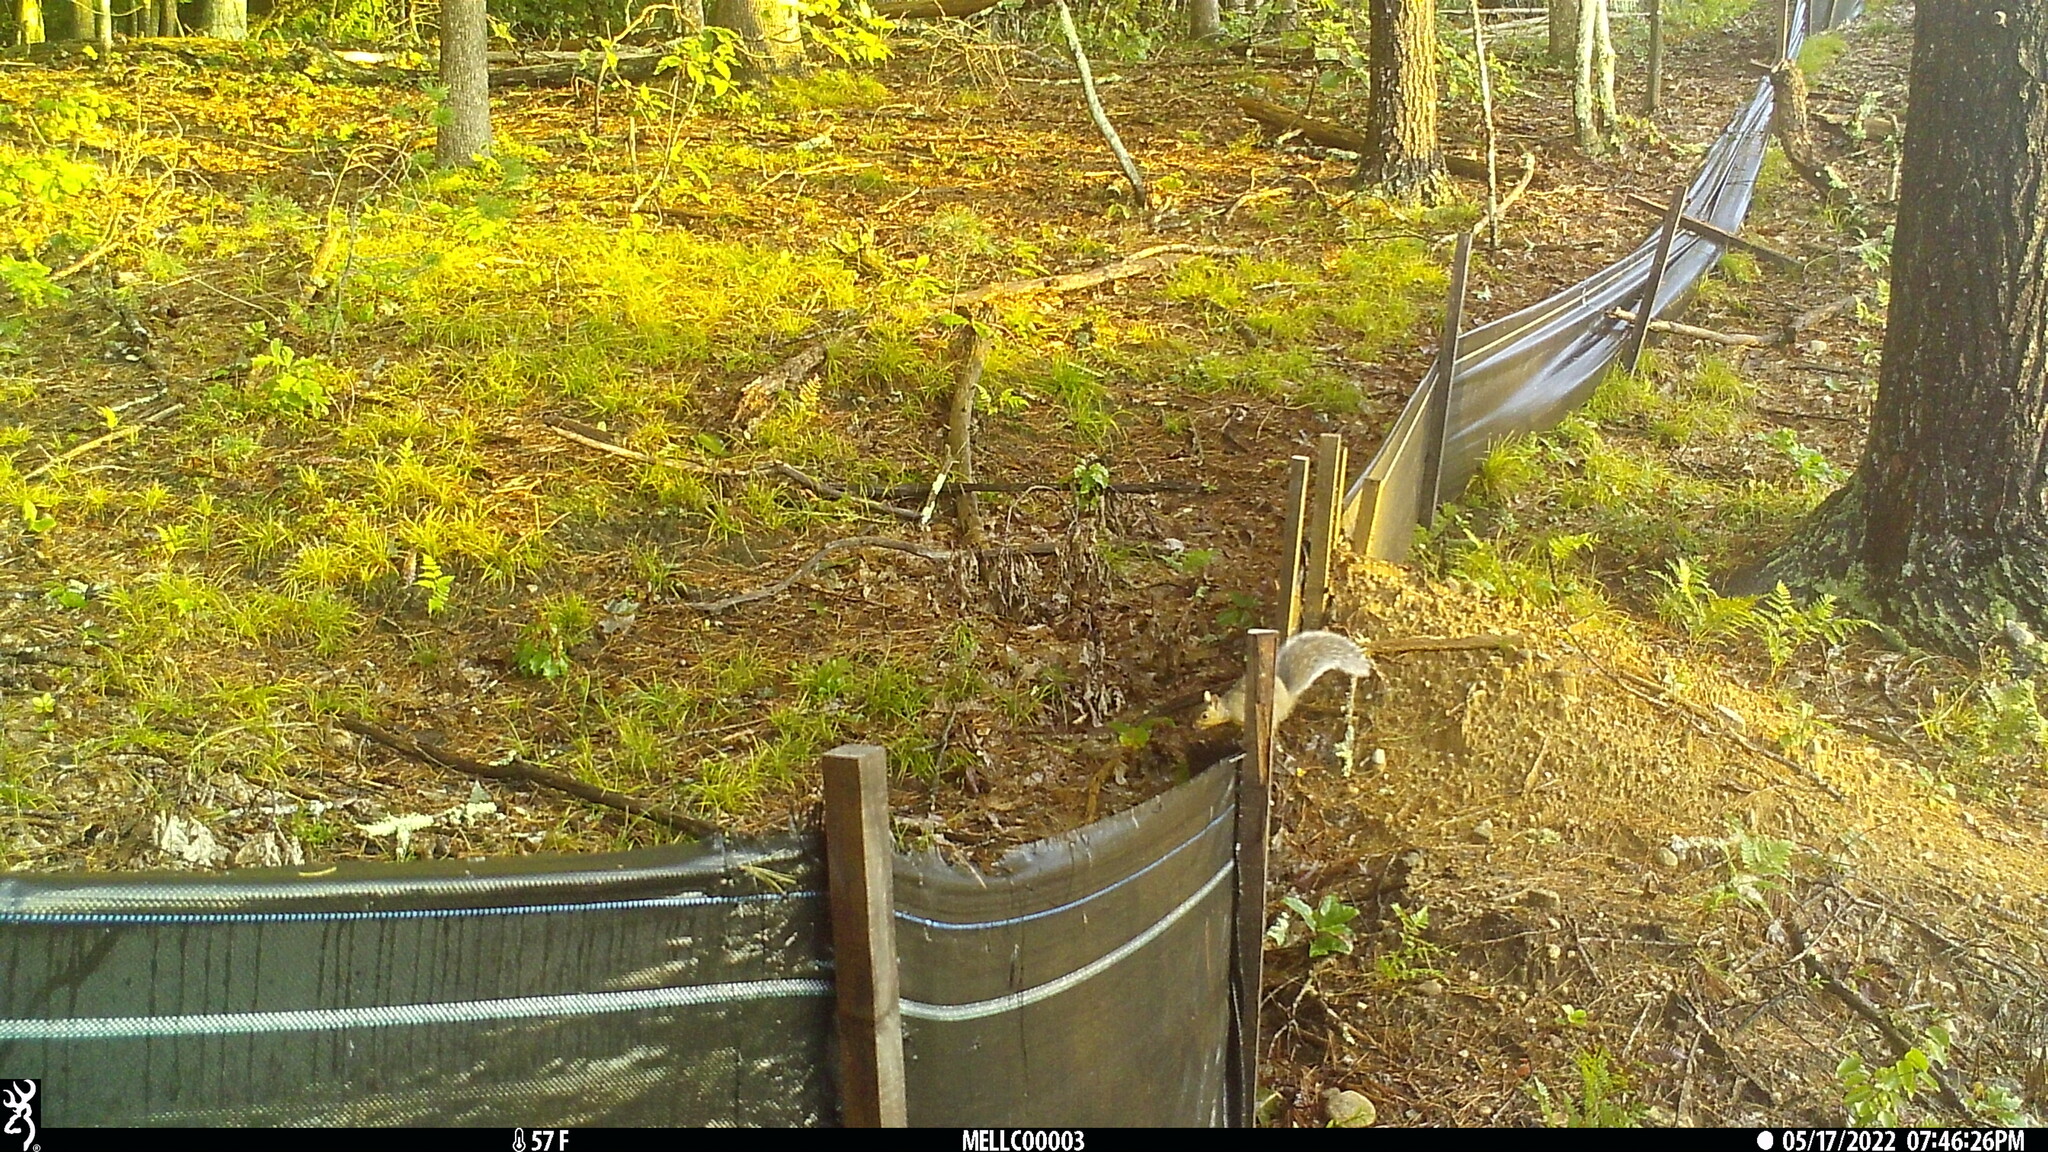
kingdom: Animalia
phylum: Chordata
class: Mammalia
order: Rodentia
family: Sciuridae
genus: Sciurus
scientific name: Sciurus carolinensis
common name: Eastern gray squirrel
